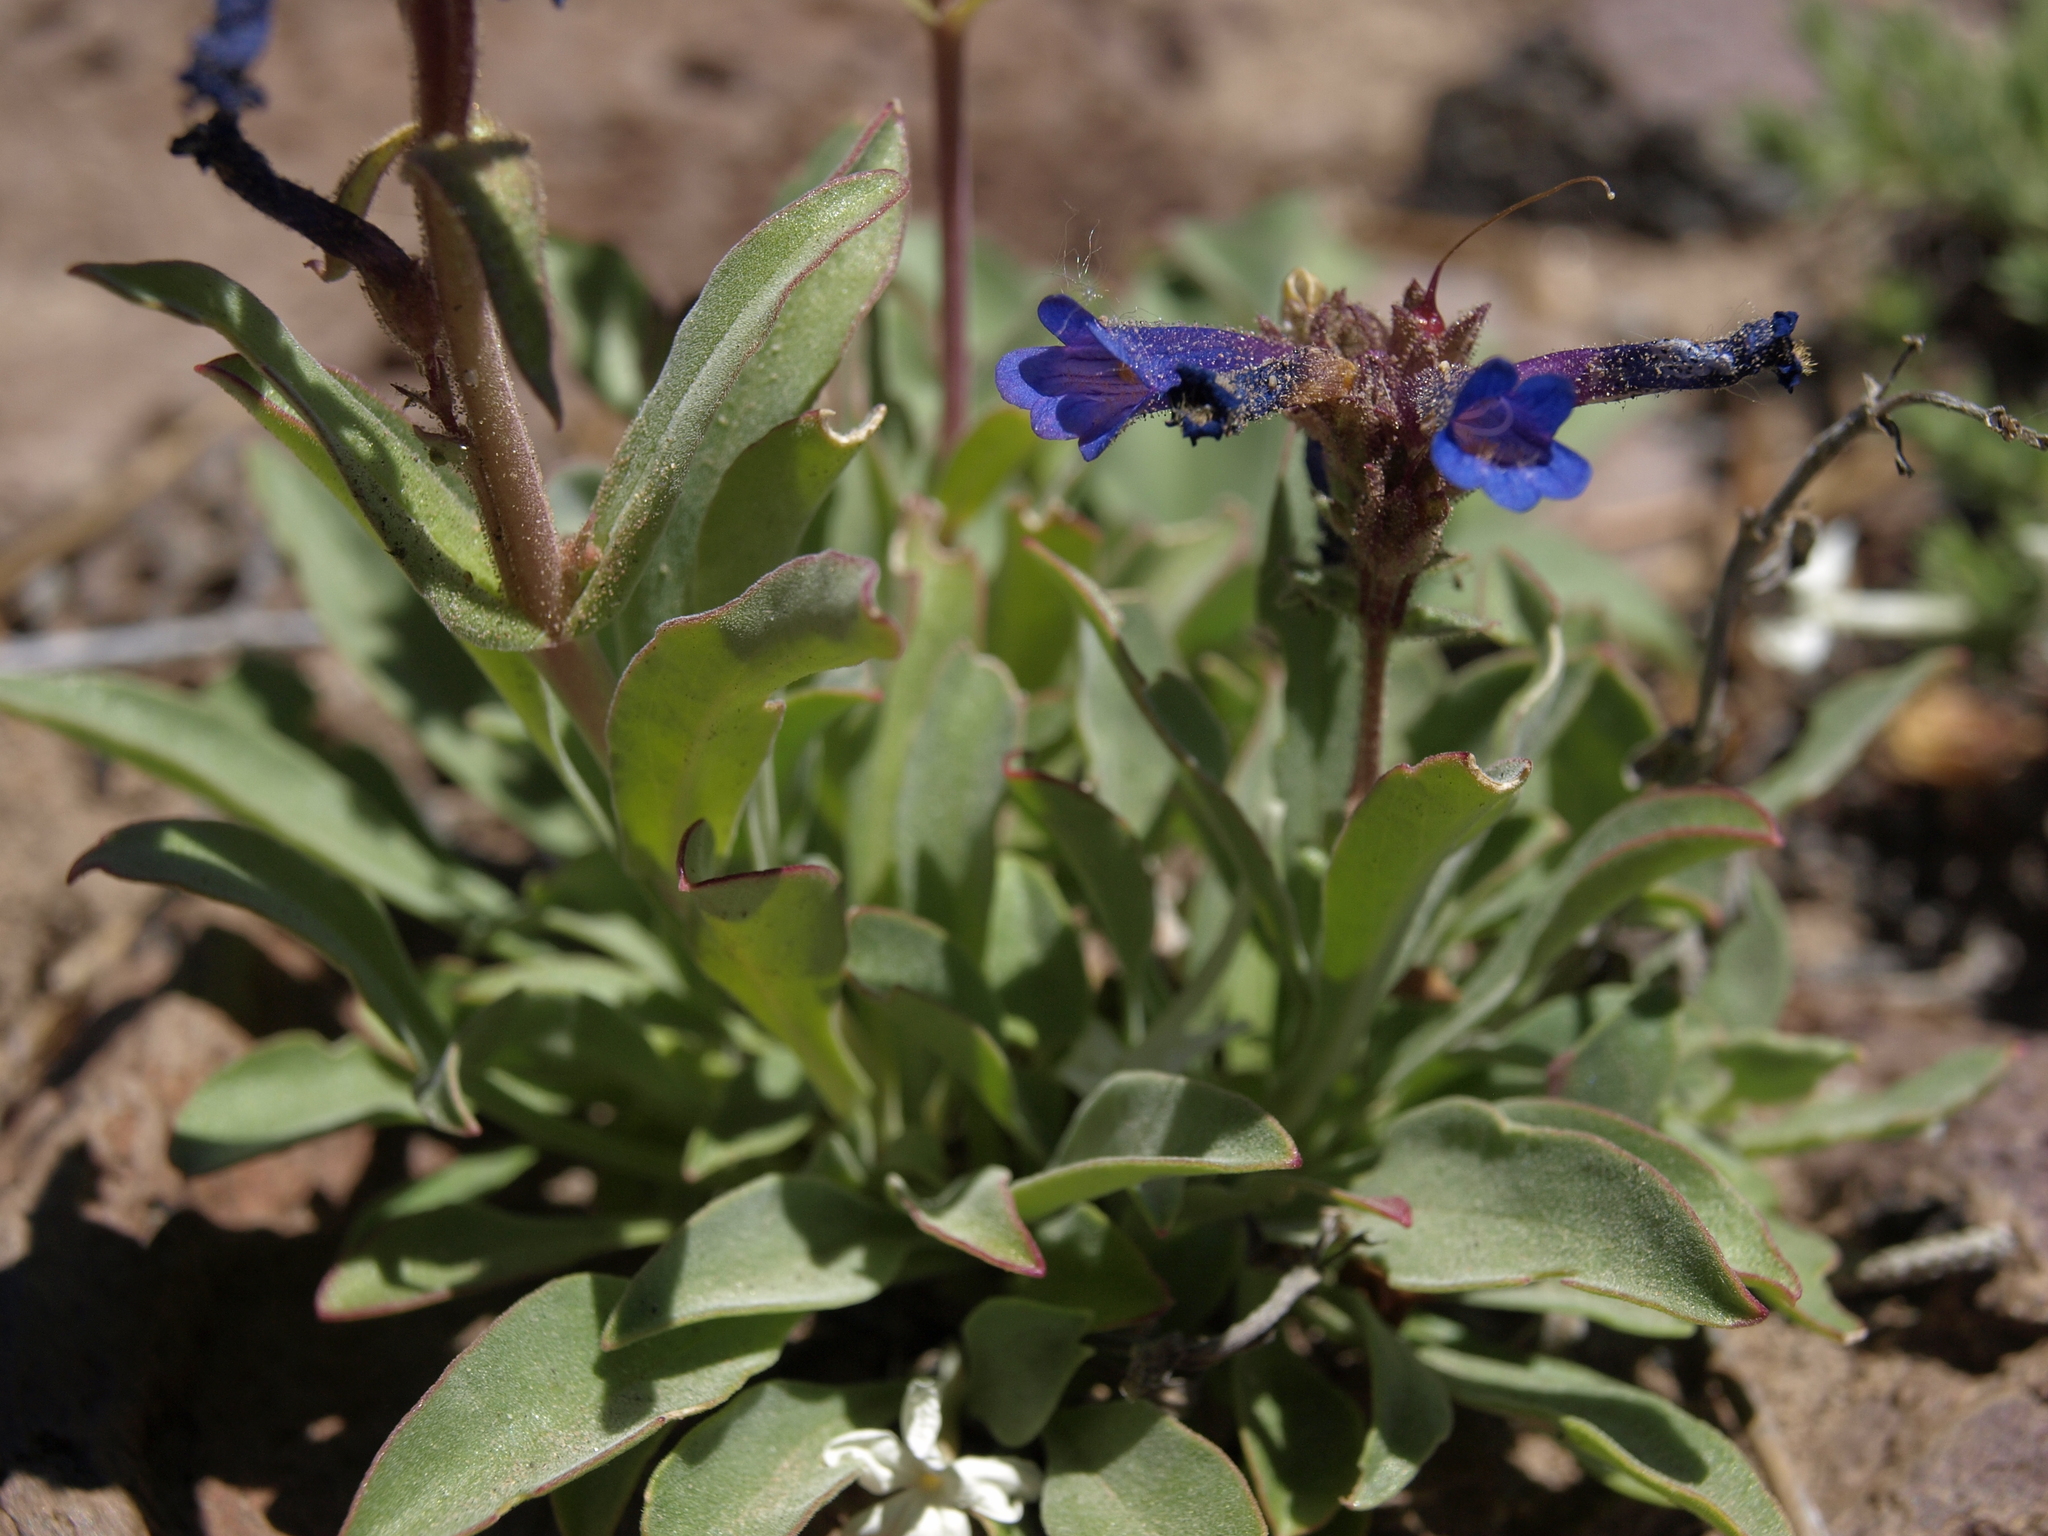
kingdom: Plantae
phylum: Tracheophyta
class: Magnoliopsida
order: Lamiales
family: Plantaginaceae
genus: Penstemon
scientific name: Penstemon humilis
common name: Low penstemon
